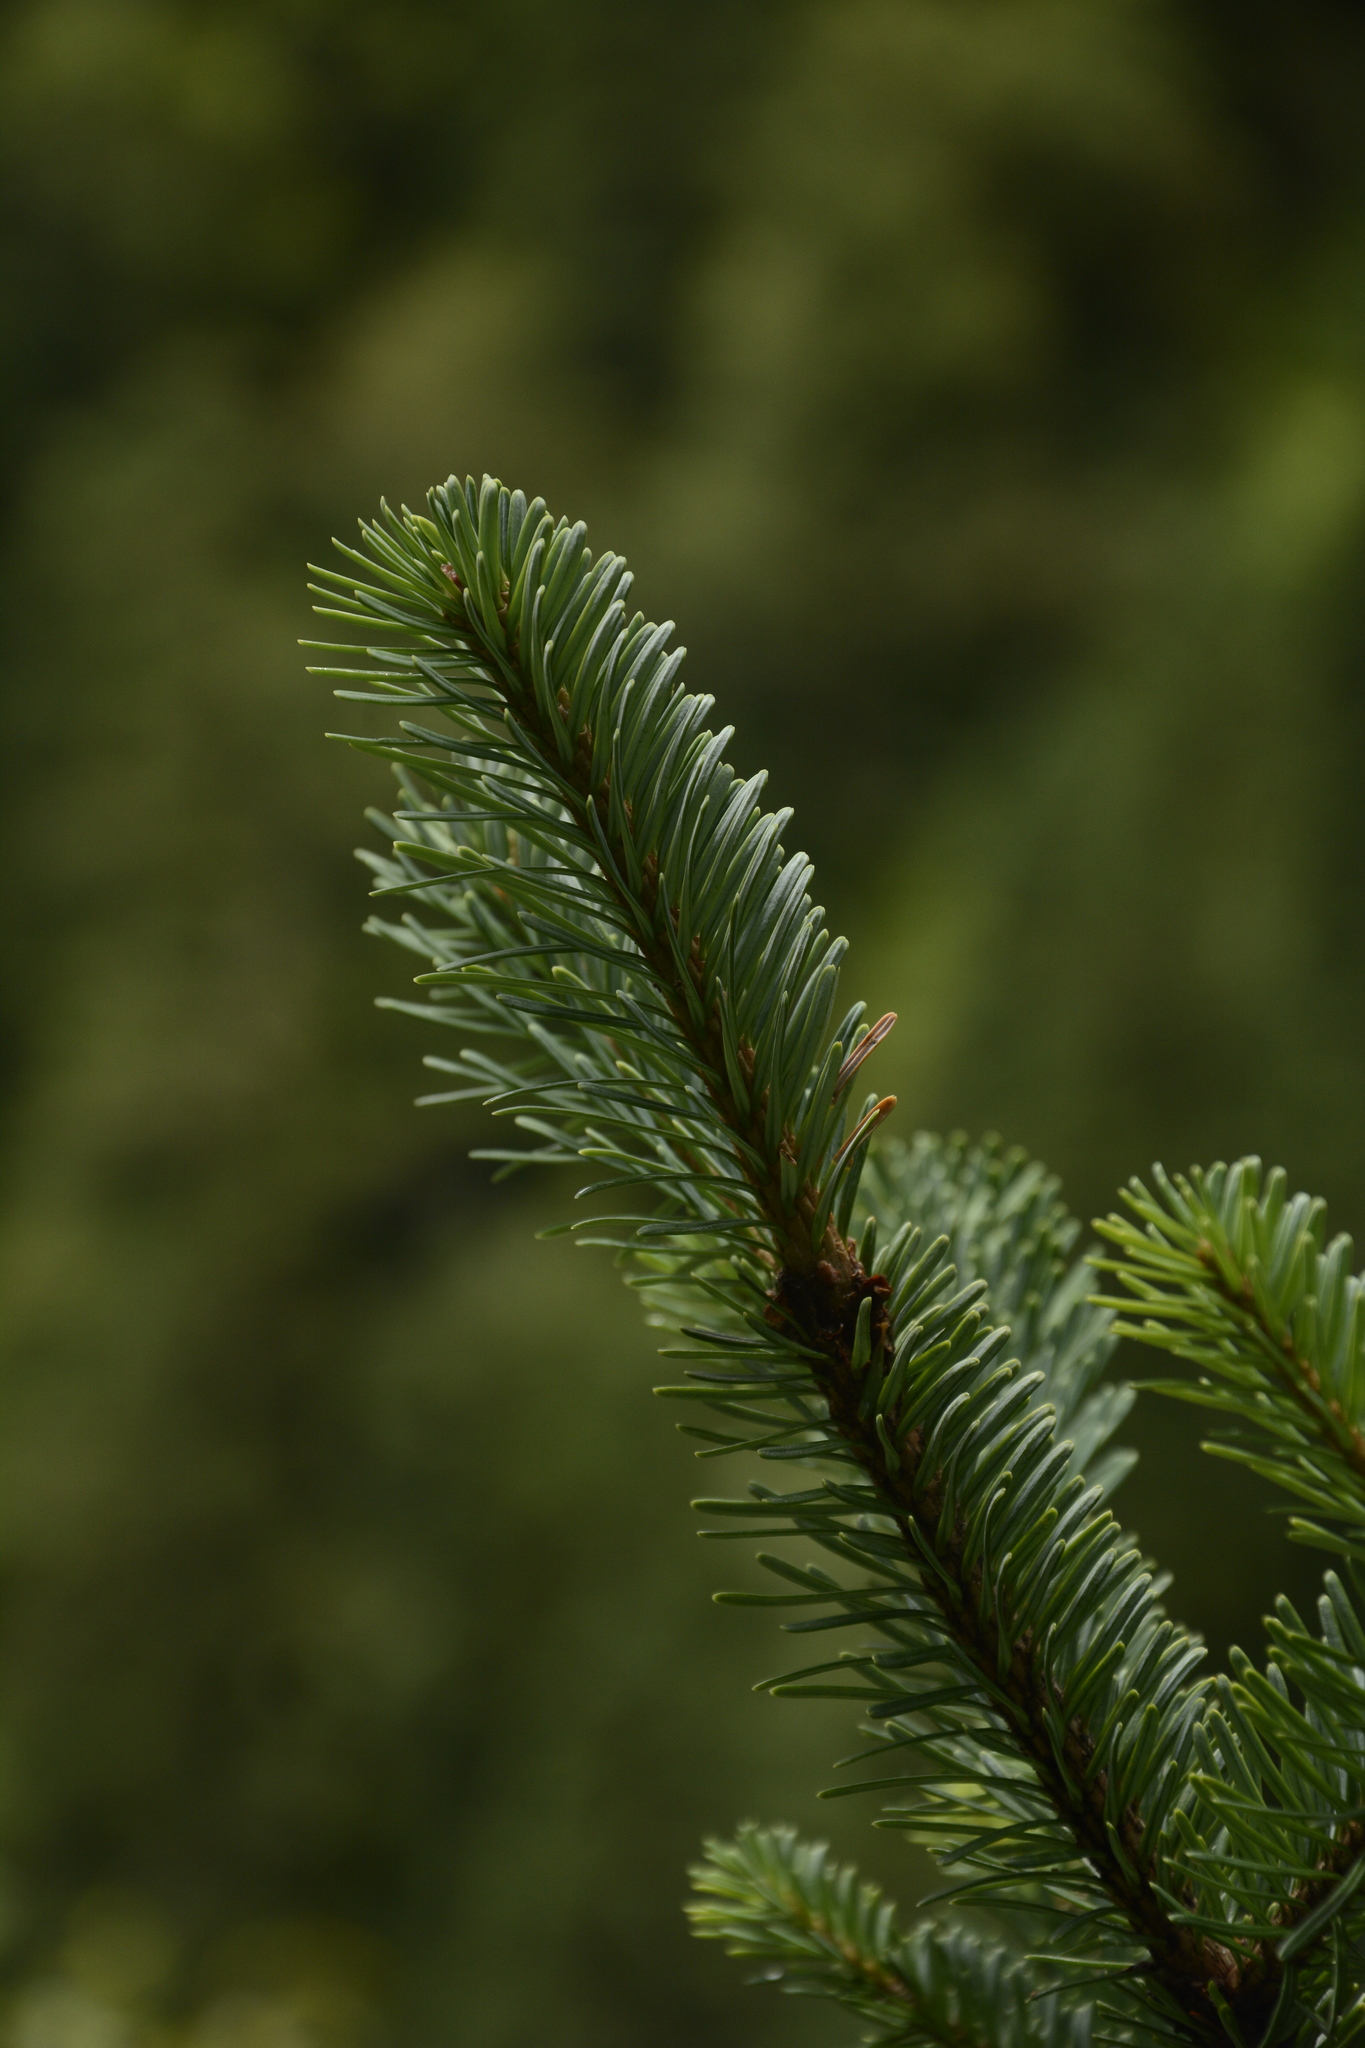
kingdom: Plantae
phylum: Tracheophyta
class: Pinopsida
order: Pinales
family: Pinaceae
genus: Abies
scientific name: Abies pindrow
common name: Pindrow fir
